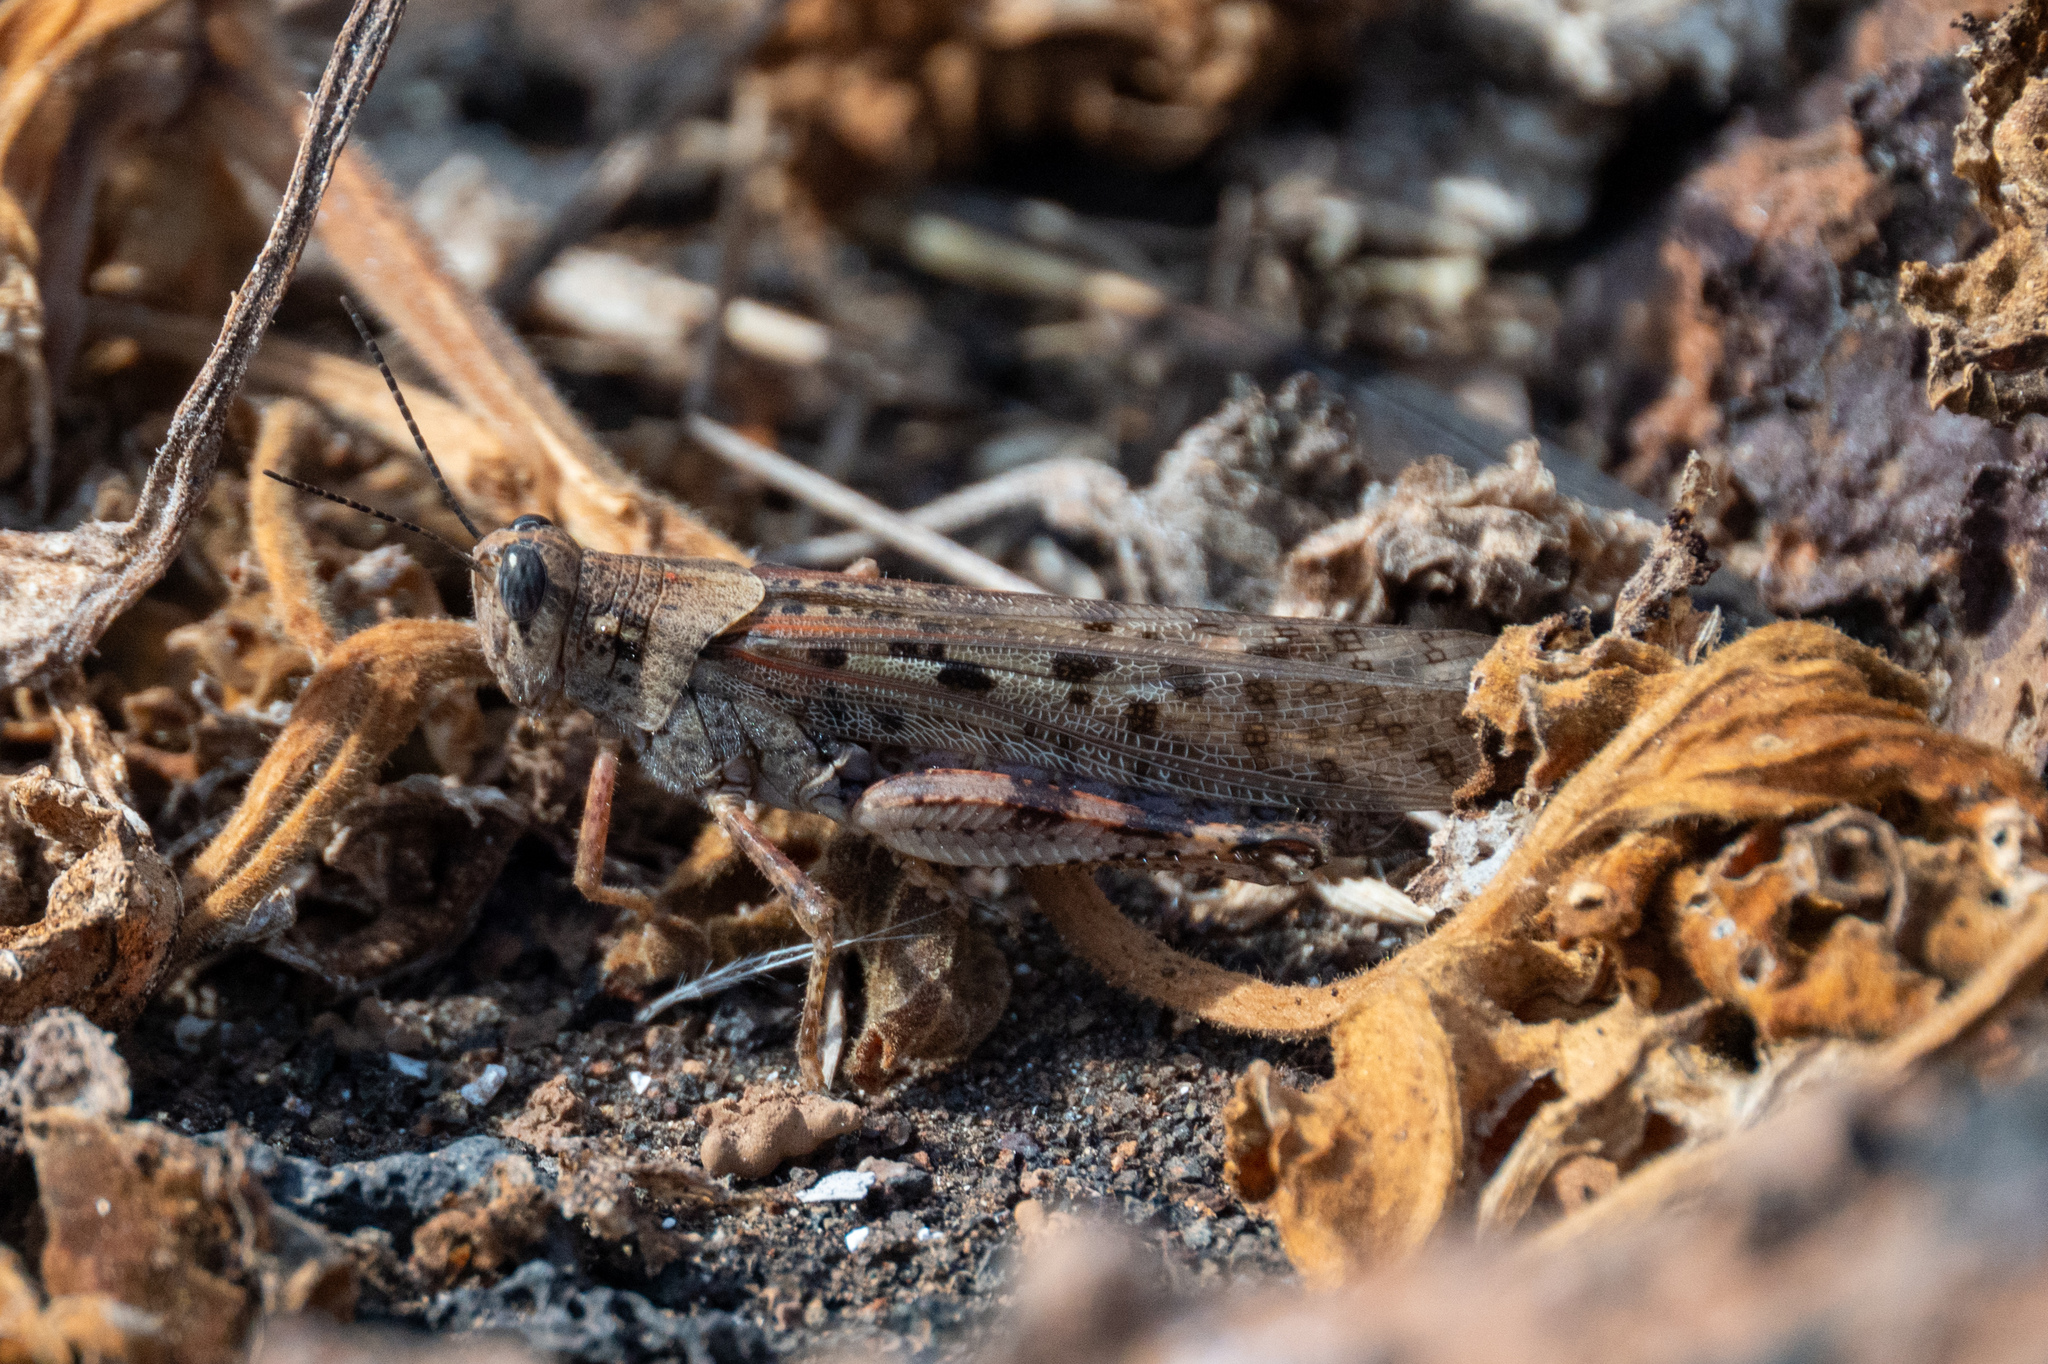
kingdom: Animalia
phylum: Arthropoda
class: Insecta
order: Orthoptera
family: Acrididae
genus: Schistocerca
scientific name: Schistocerca literosa
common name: Small painted locust
